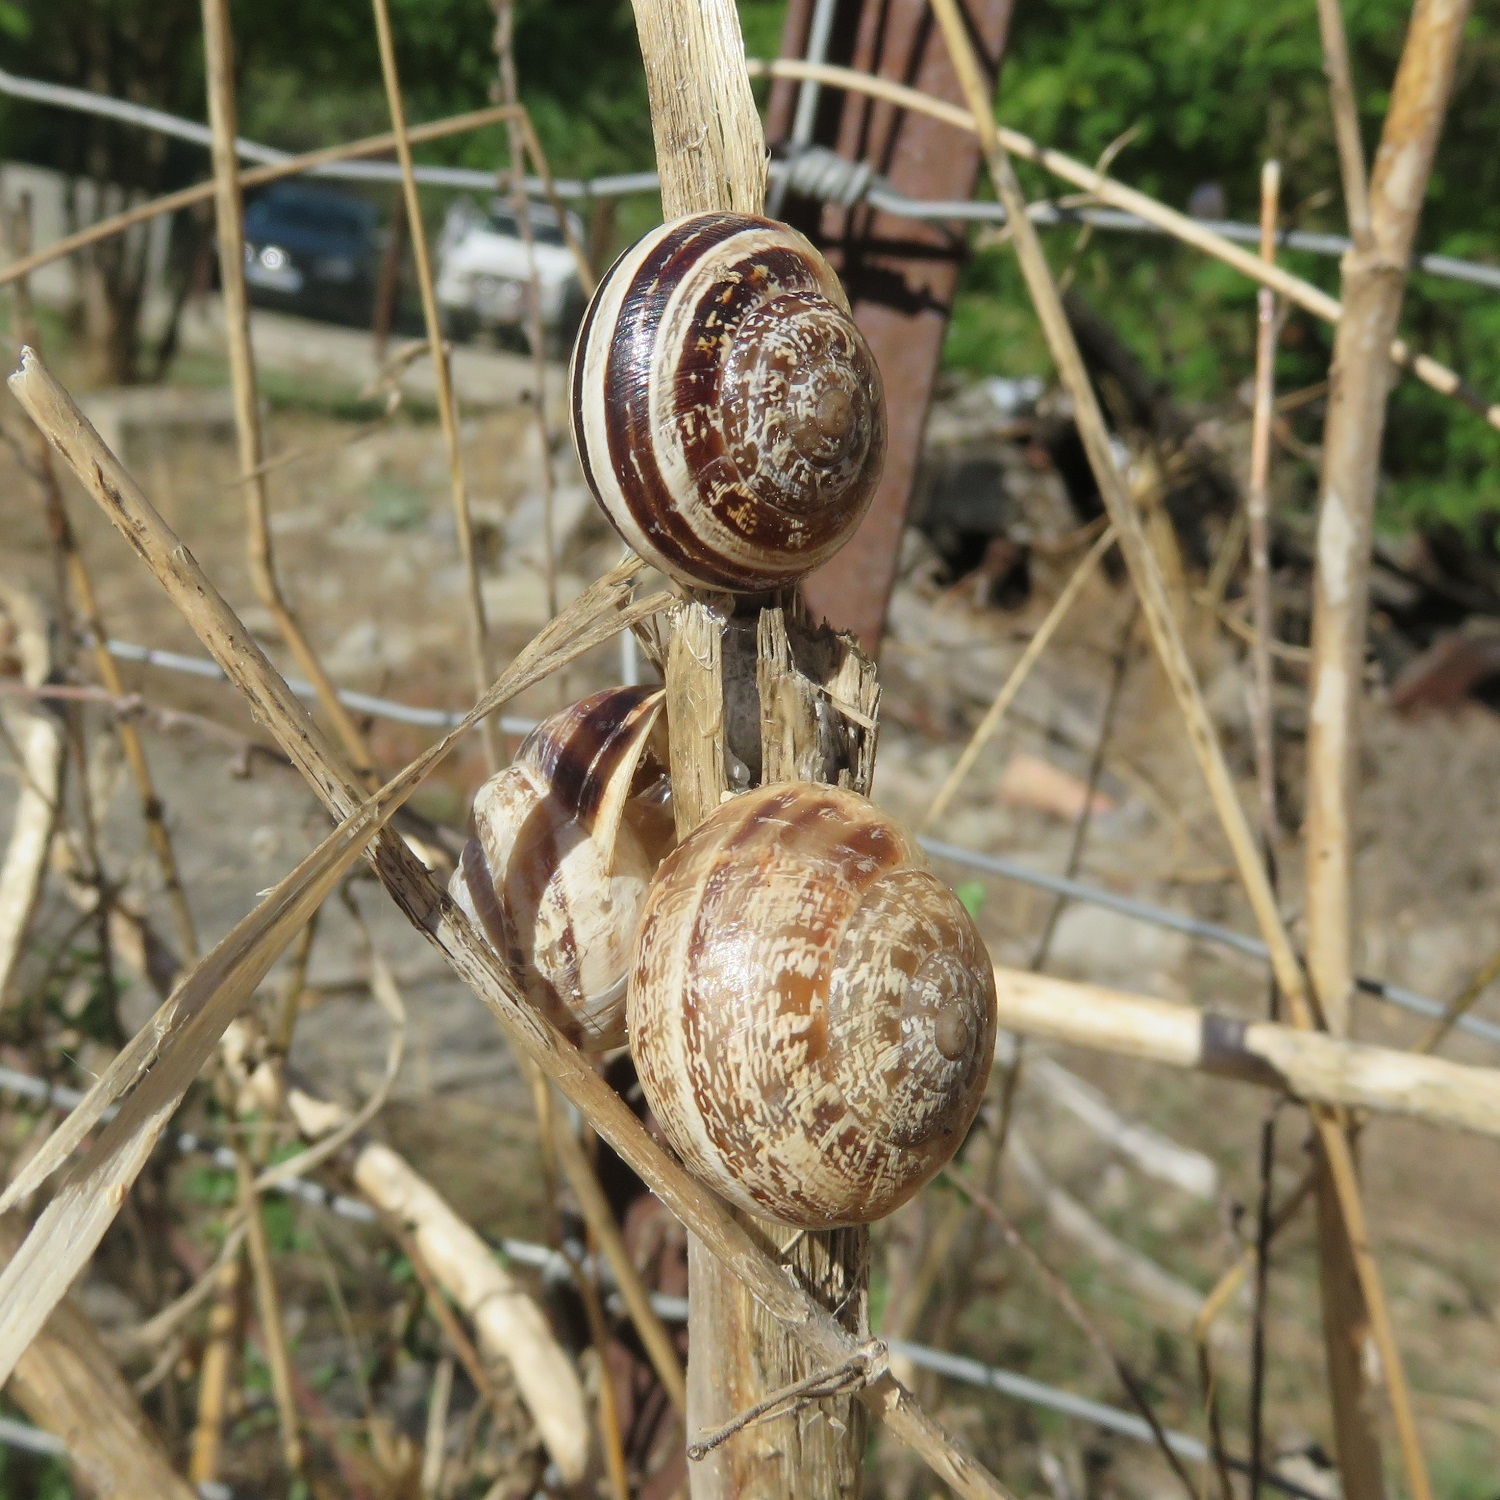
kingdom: Animalia
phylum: Mollusca
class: Gastropoda
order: Stylommatophora
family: Helicidae
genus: Eobania
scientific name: Eobania vermiculata
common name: Chocolateband snail
